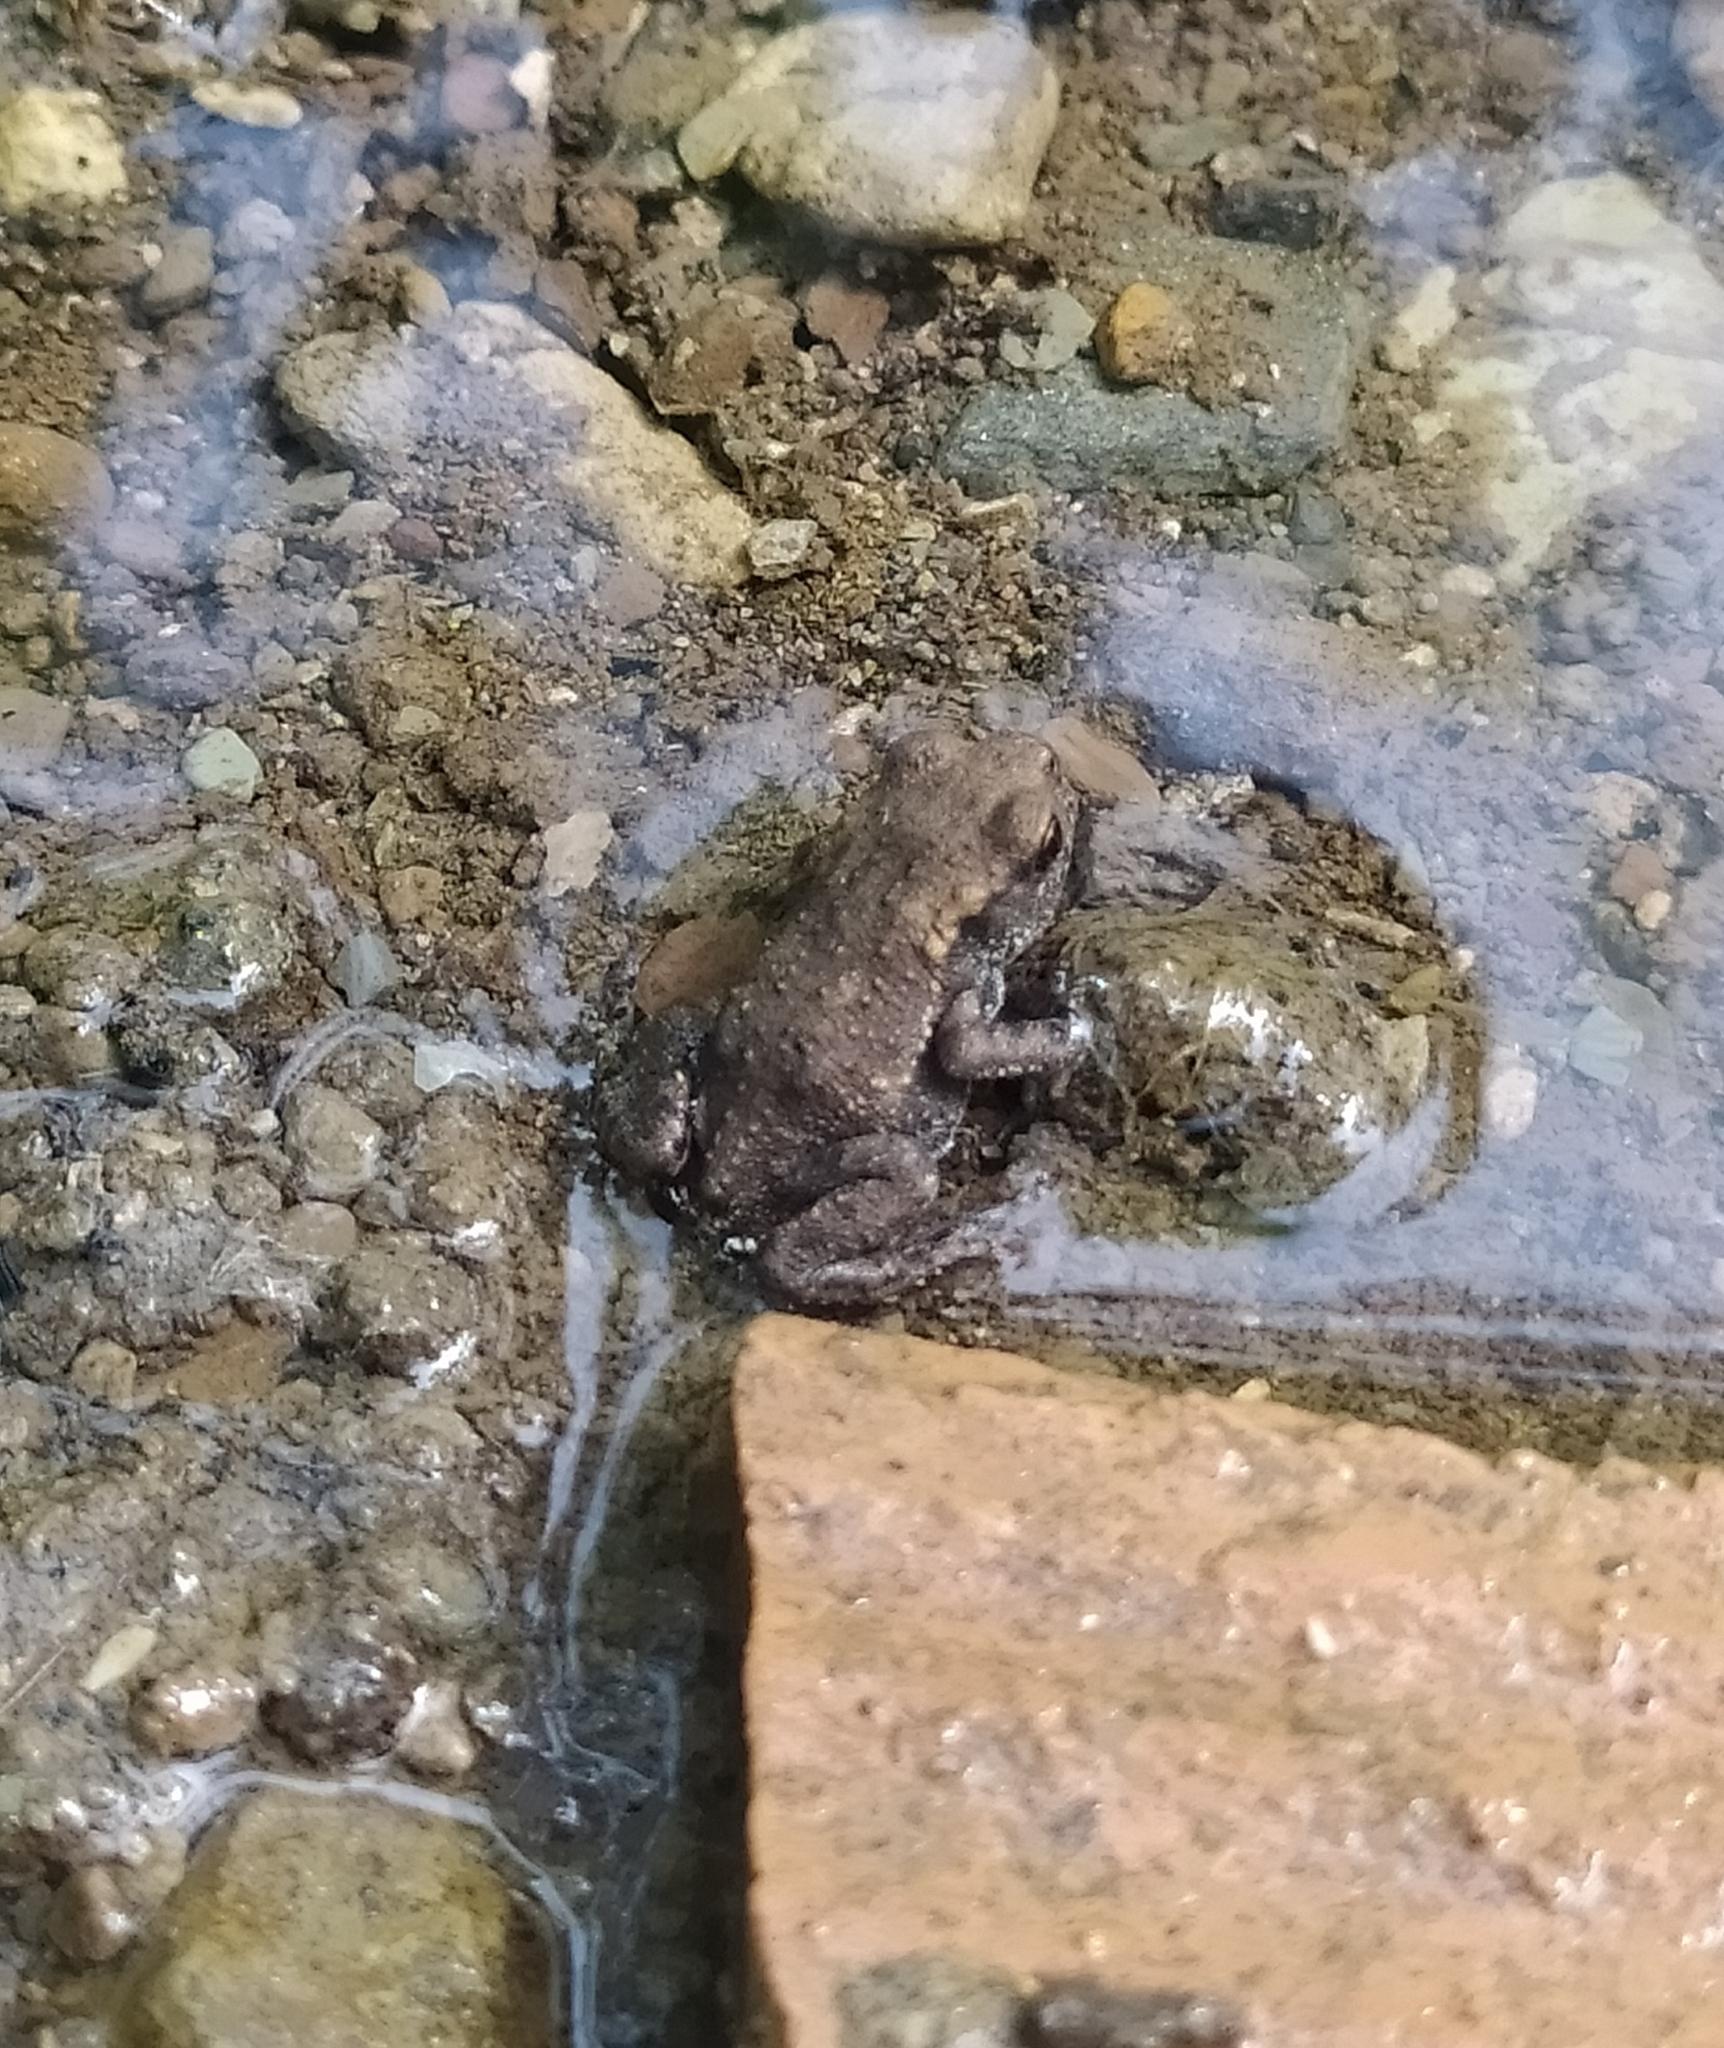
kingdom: Animalia
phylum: Chordata
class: Amphibia
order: Anura
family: Bufonidae
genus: Bufo
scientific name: Bufo bufo
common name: Common toad
